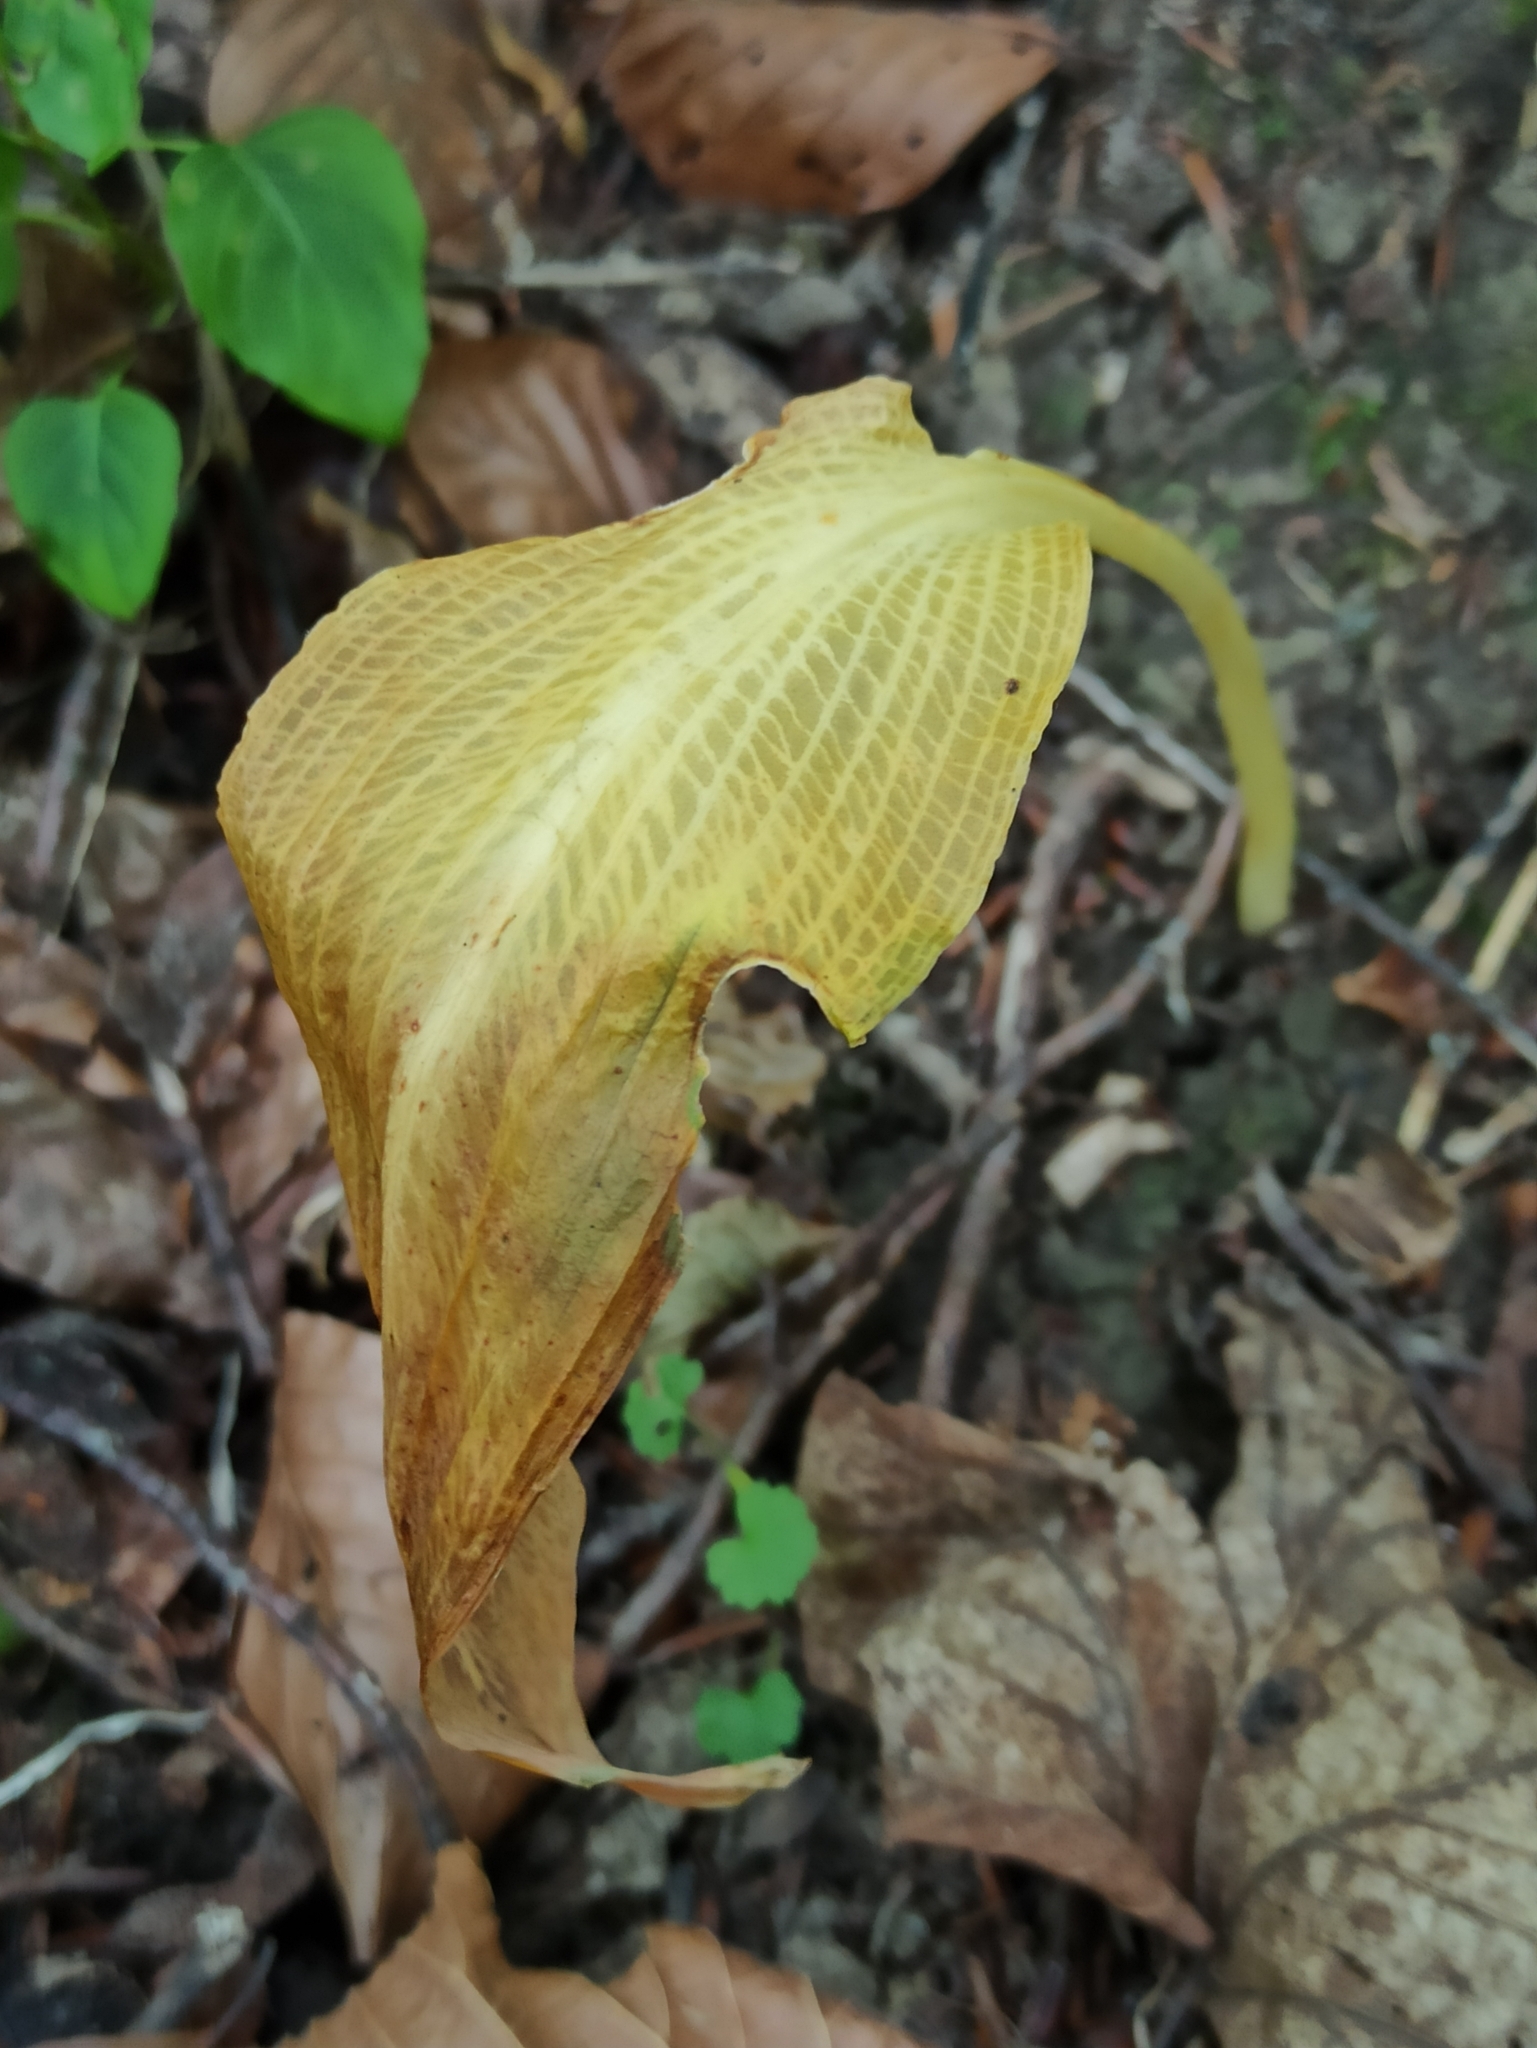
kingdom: Plantae
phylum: Tracheophyta
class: Liliopsida
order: Asparagales
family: Amaryllidaceae
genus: Allium
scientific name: Allium ursinum
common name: Ramsons
